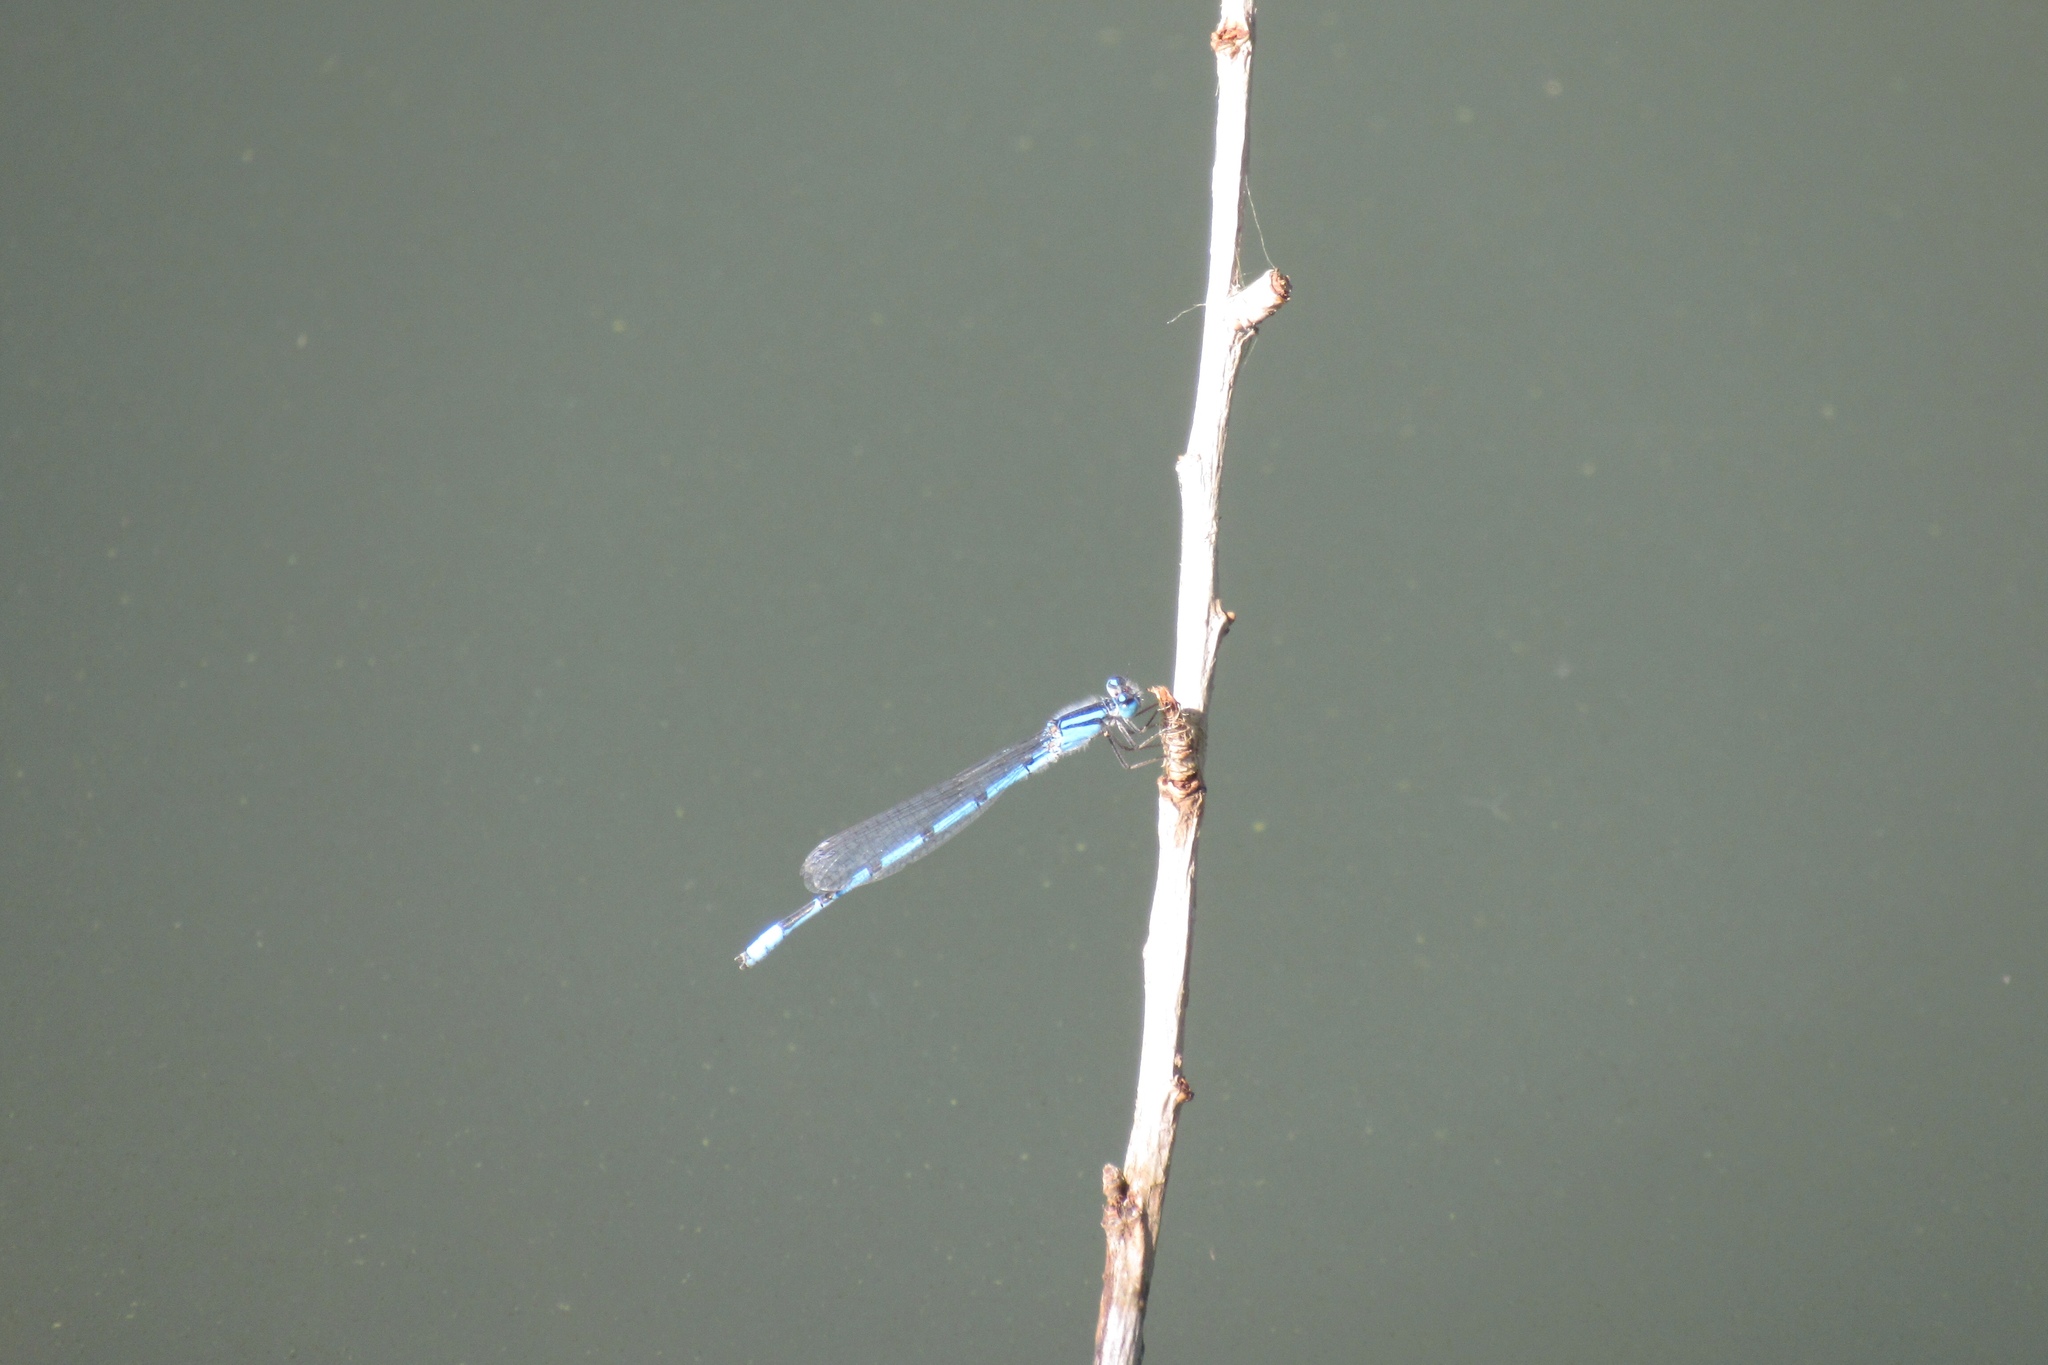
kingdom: Animalia
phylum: Arthropoda
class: Insecta
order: Odonata
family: Coenagrionidae
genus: Enallagma
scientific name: Enallagma civile
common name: Damselfly
